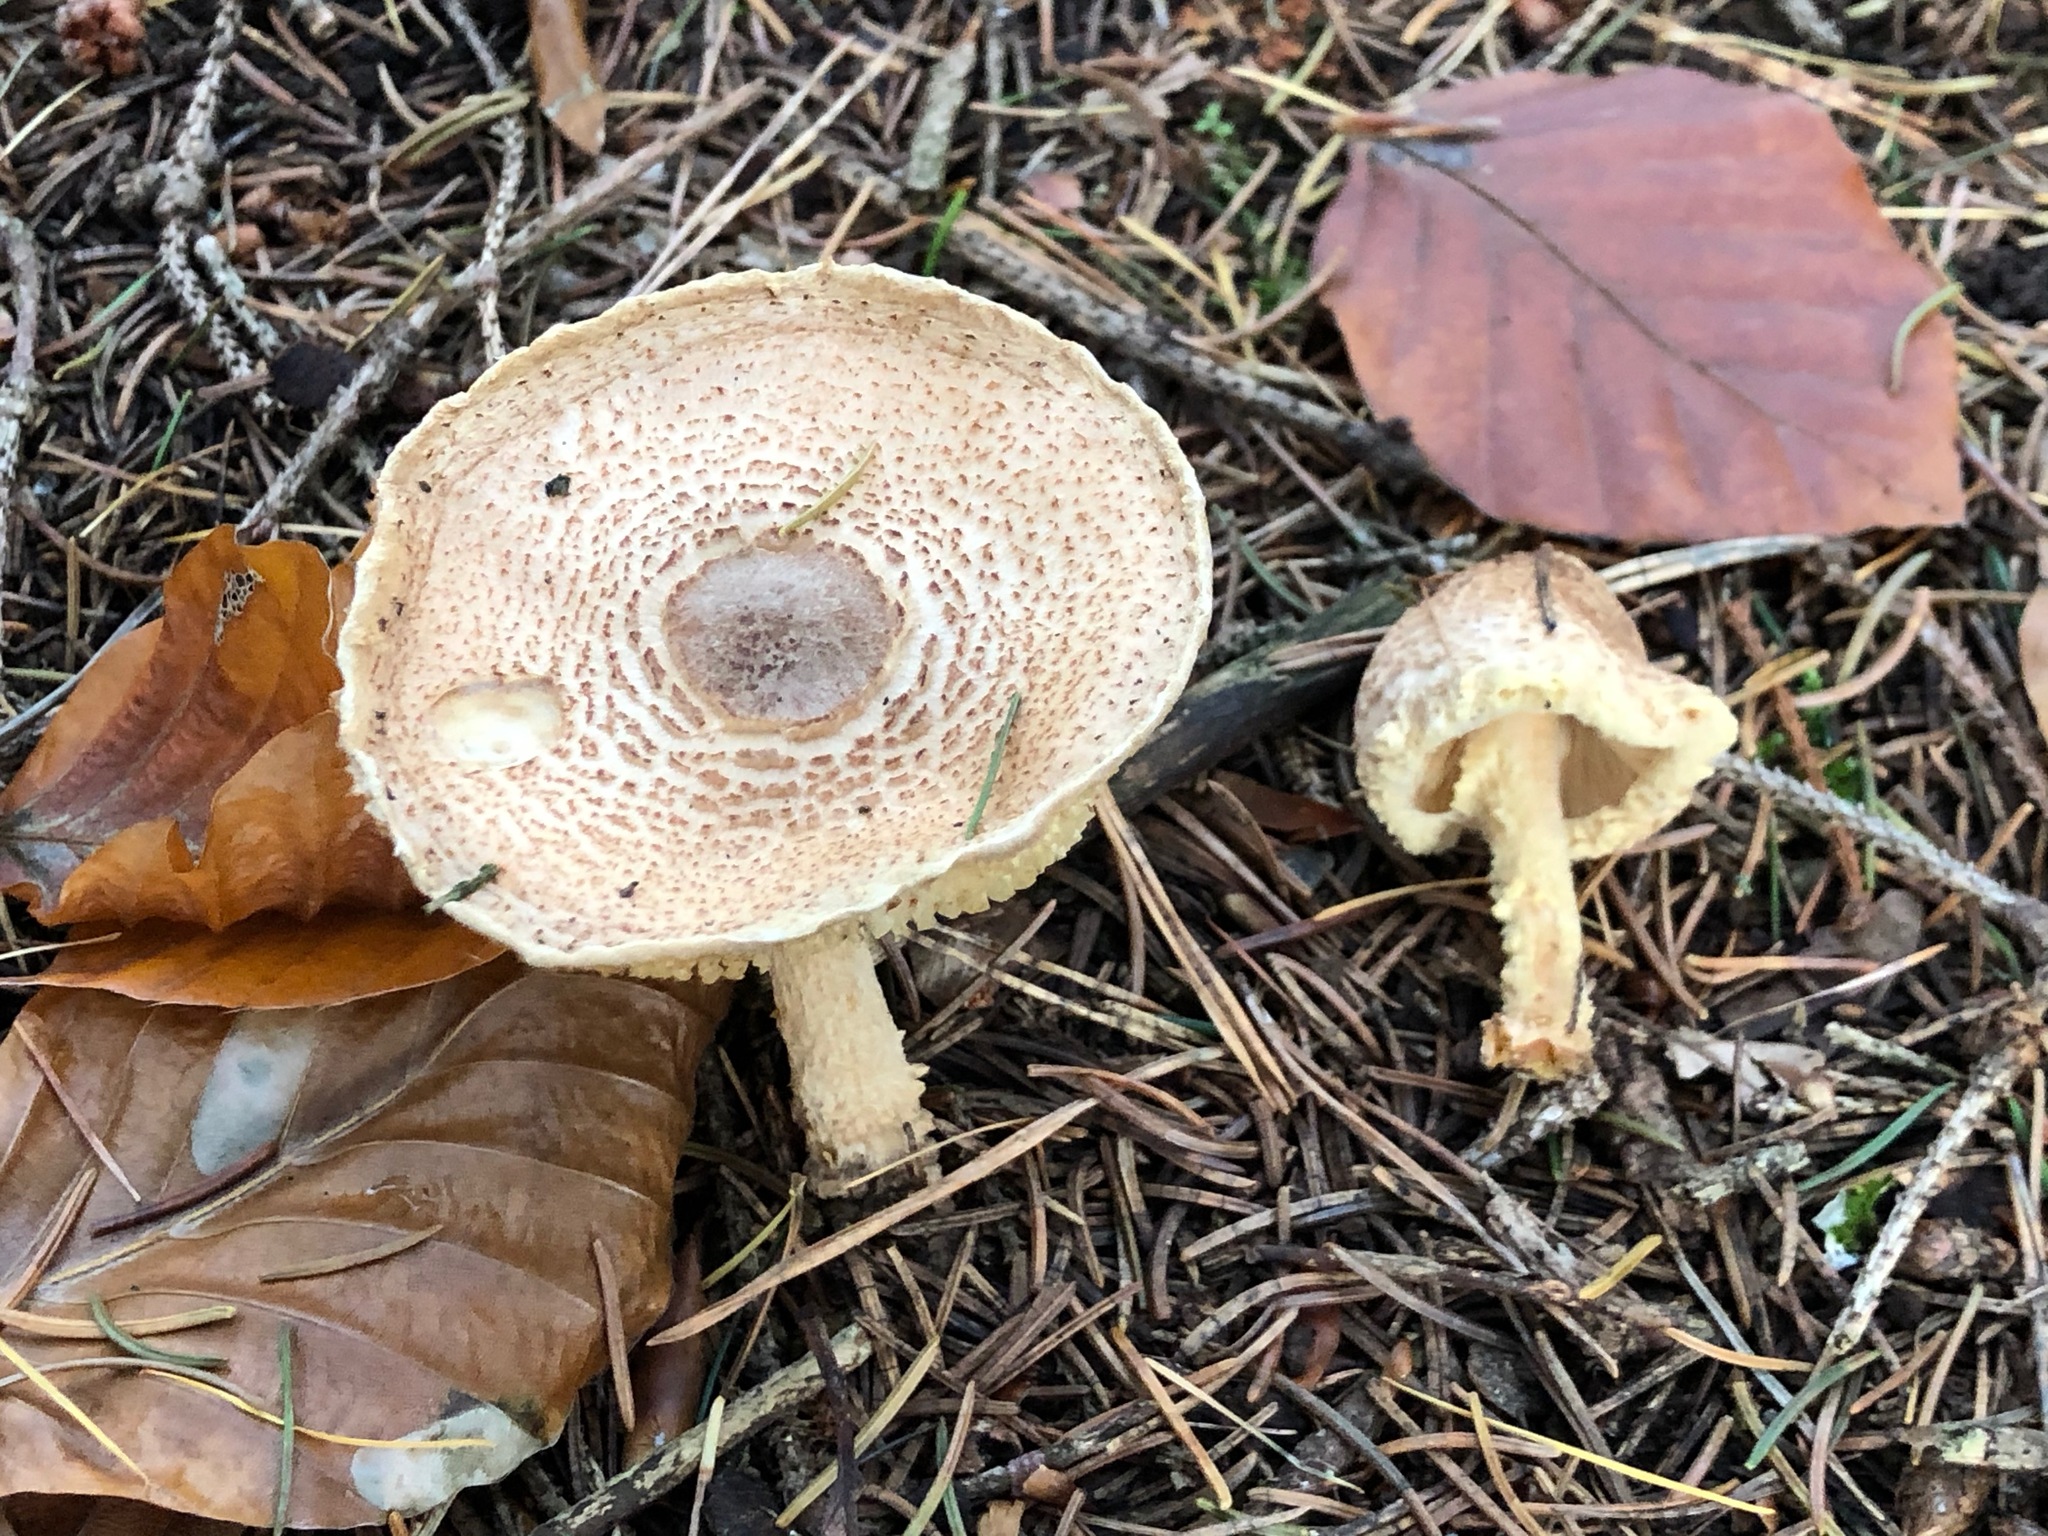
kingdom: Fungi
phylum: Basidiomycota
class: Agaricomycetes
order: Agaricales
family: Agaricaceae
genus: Lepiota
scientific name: Lepiota magnispora
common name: Yellowfoot dapperling
